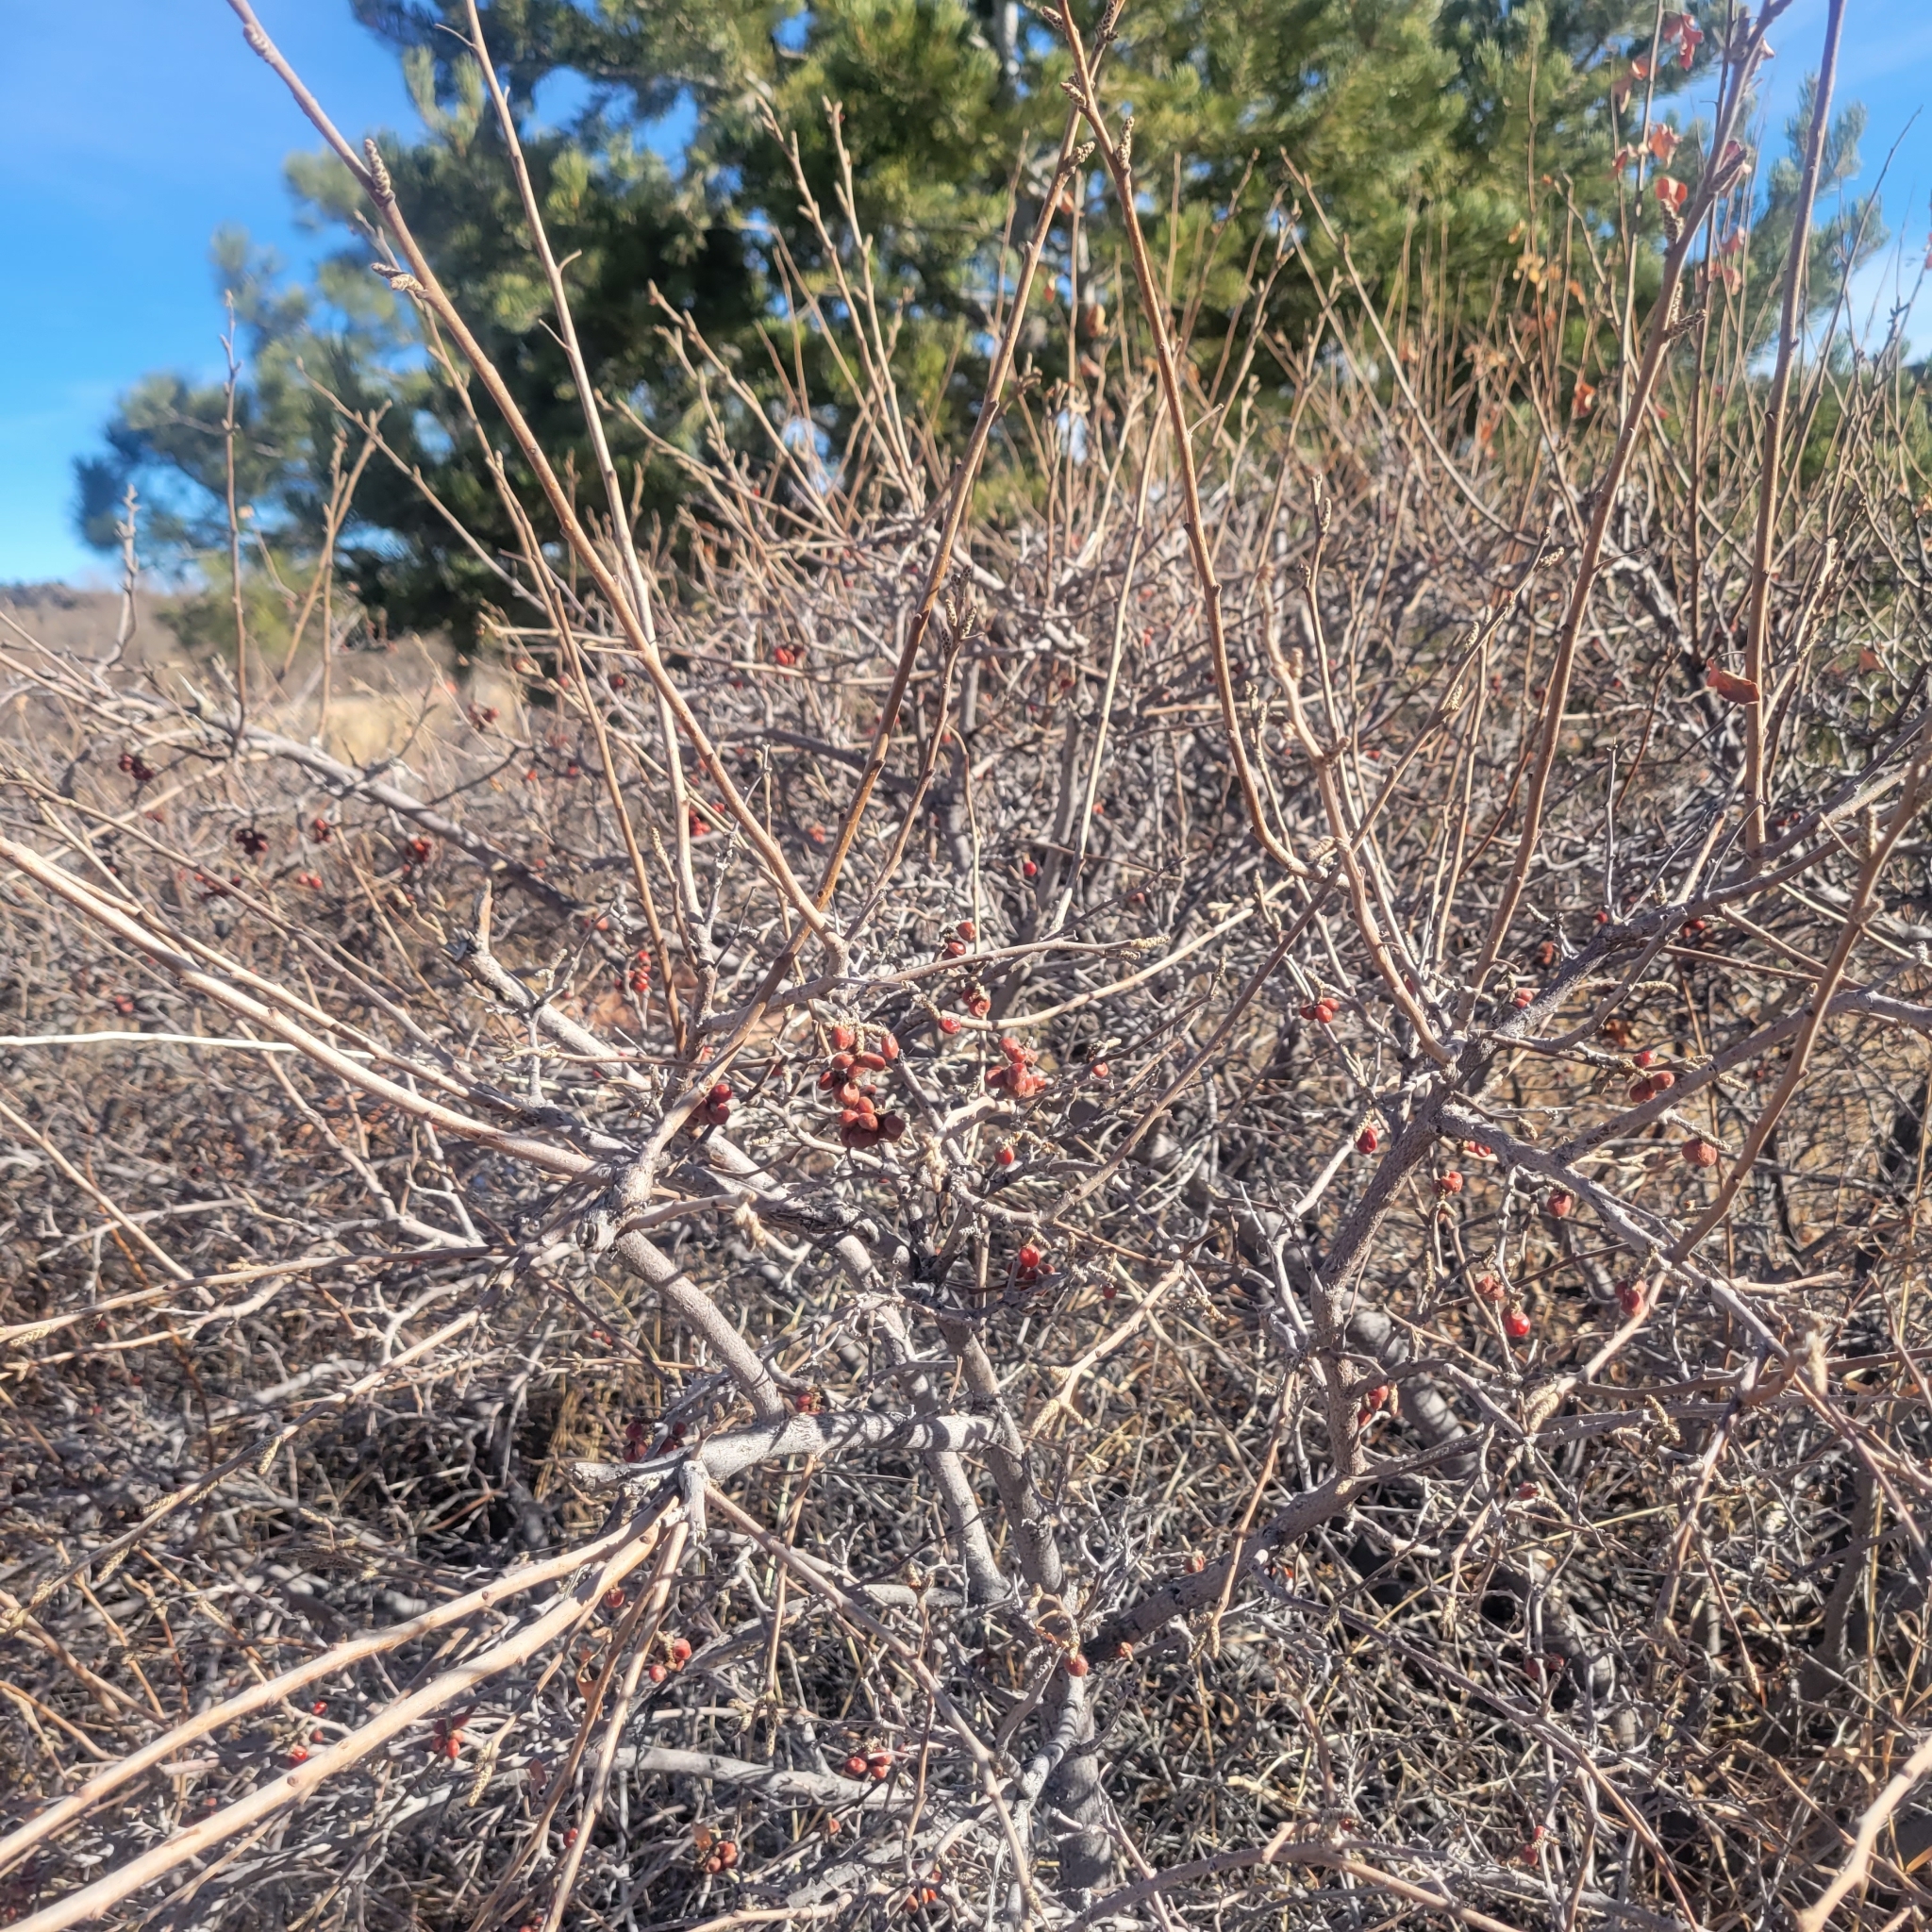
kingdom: Plantae
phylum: Tracheophyta
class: Magnoliopsida
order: Sapindales
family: Anacardiaceae
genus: Rhus
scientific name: Rhus trilobata
